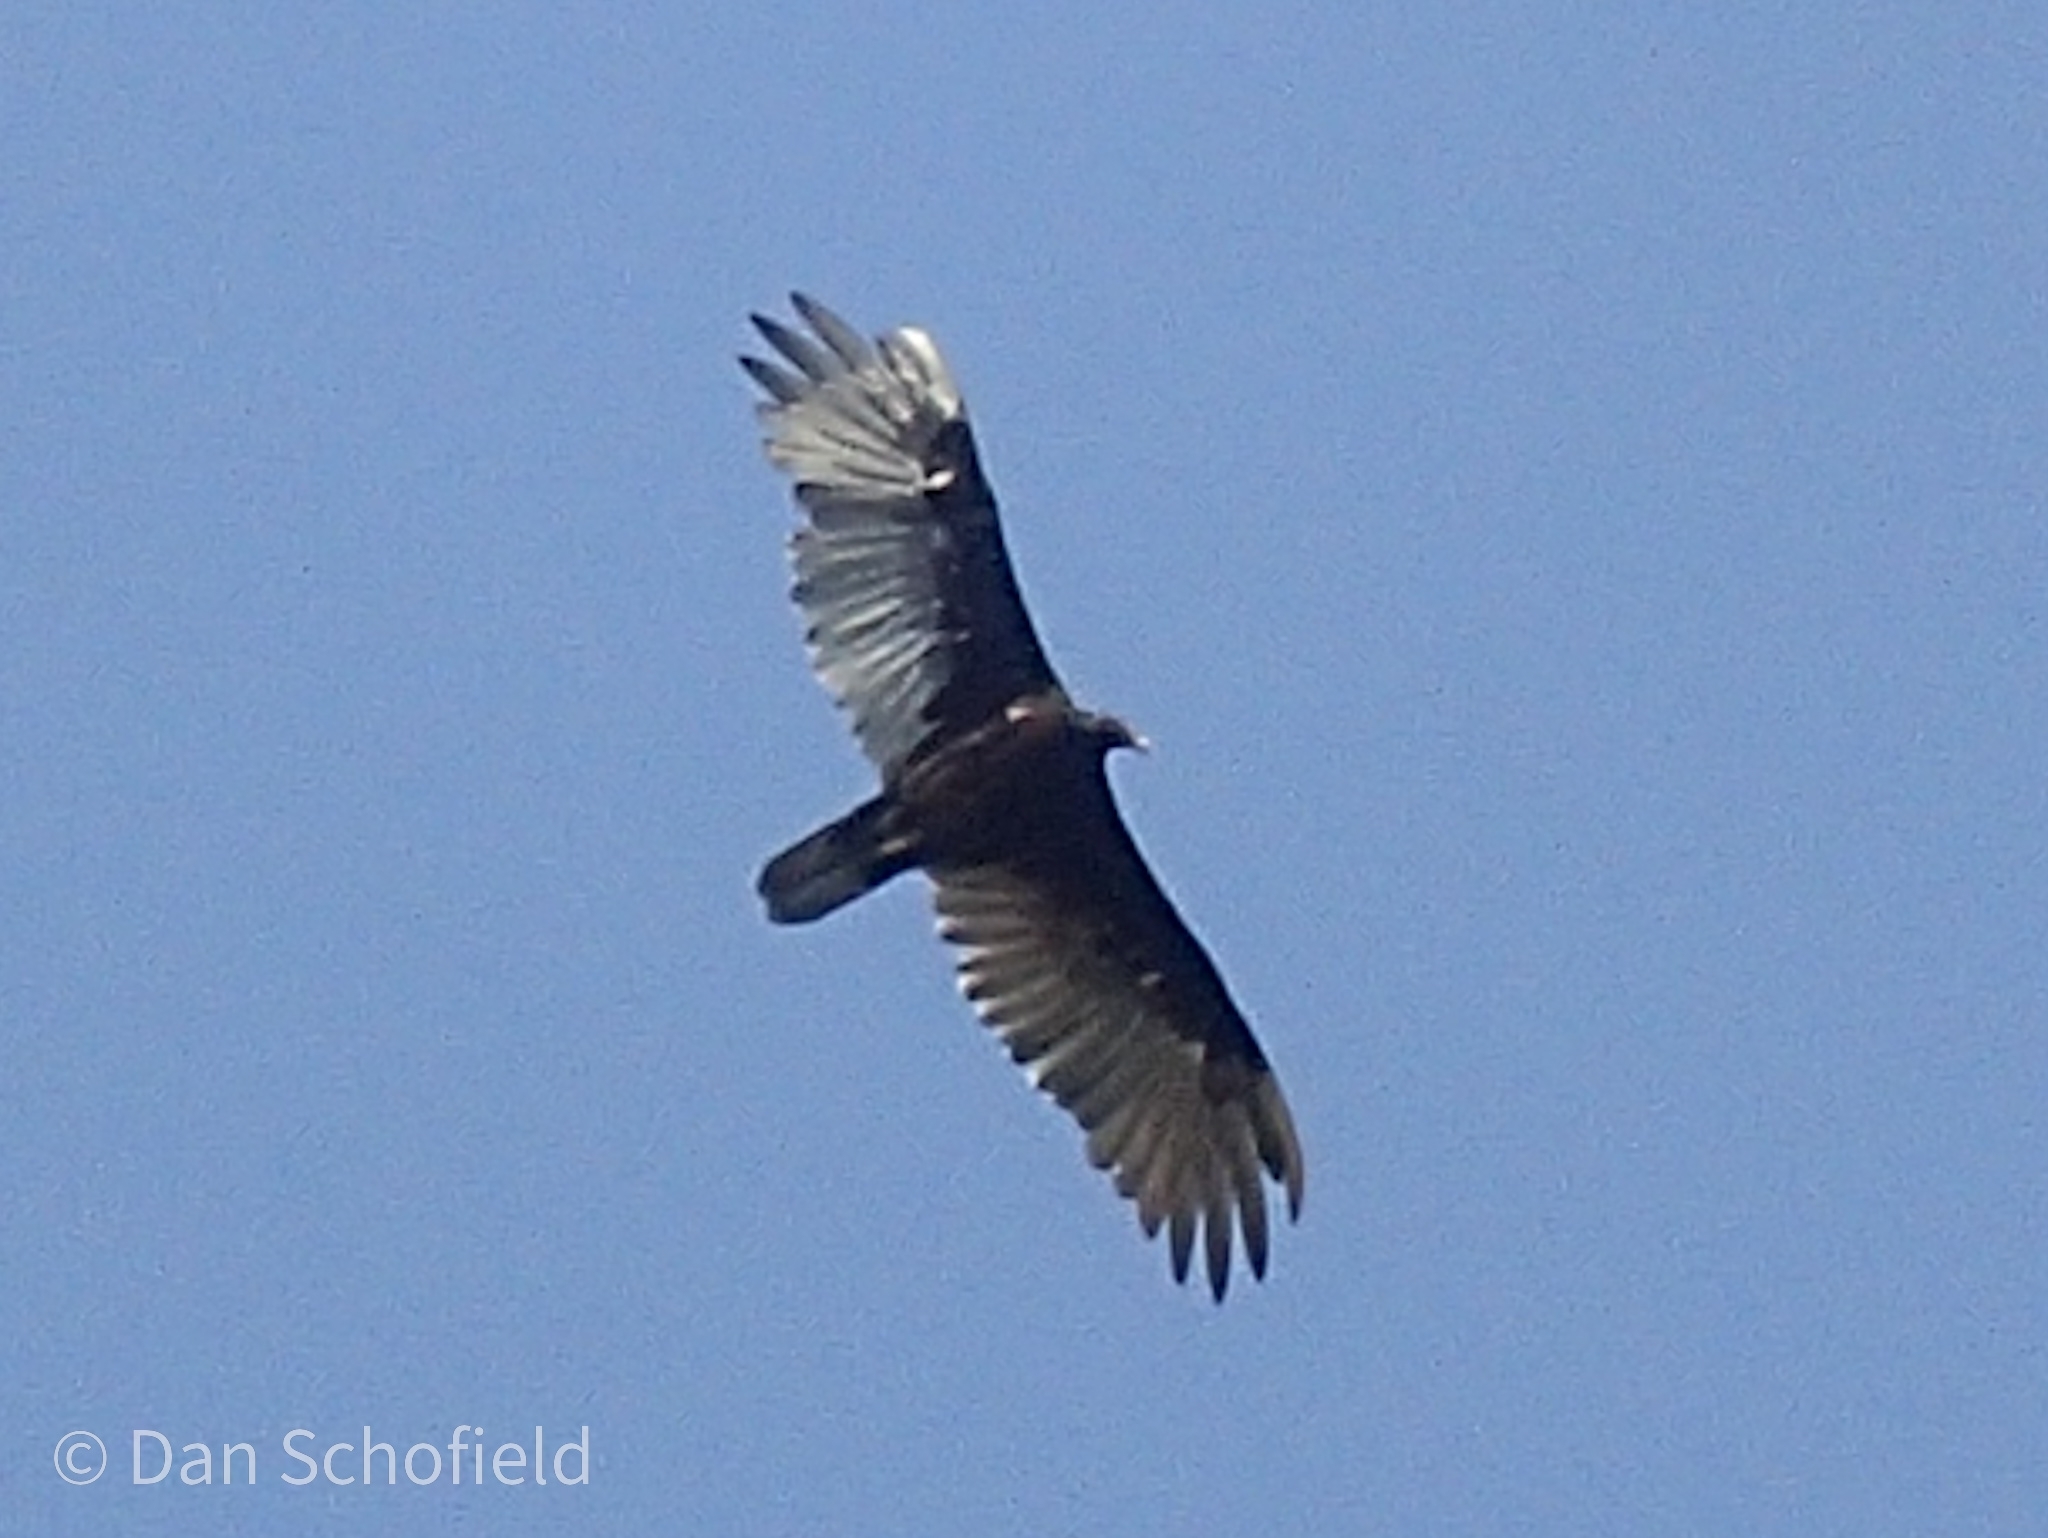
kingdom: Animalia
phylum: Chordata
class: Aves
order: Accipitriformes
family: Cathartidae
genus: Cathartes
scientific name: Cathartes aura
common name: Turkey vulture
